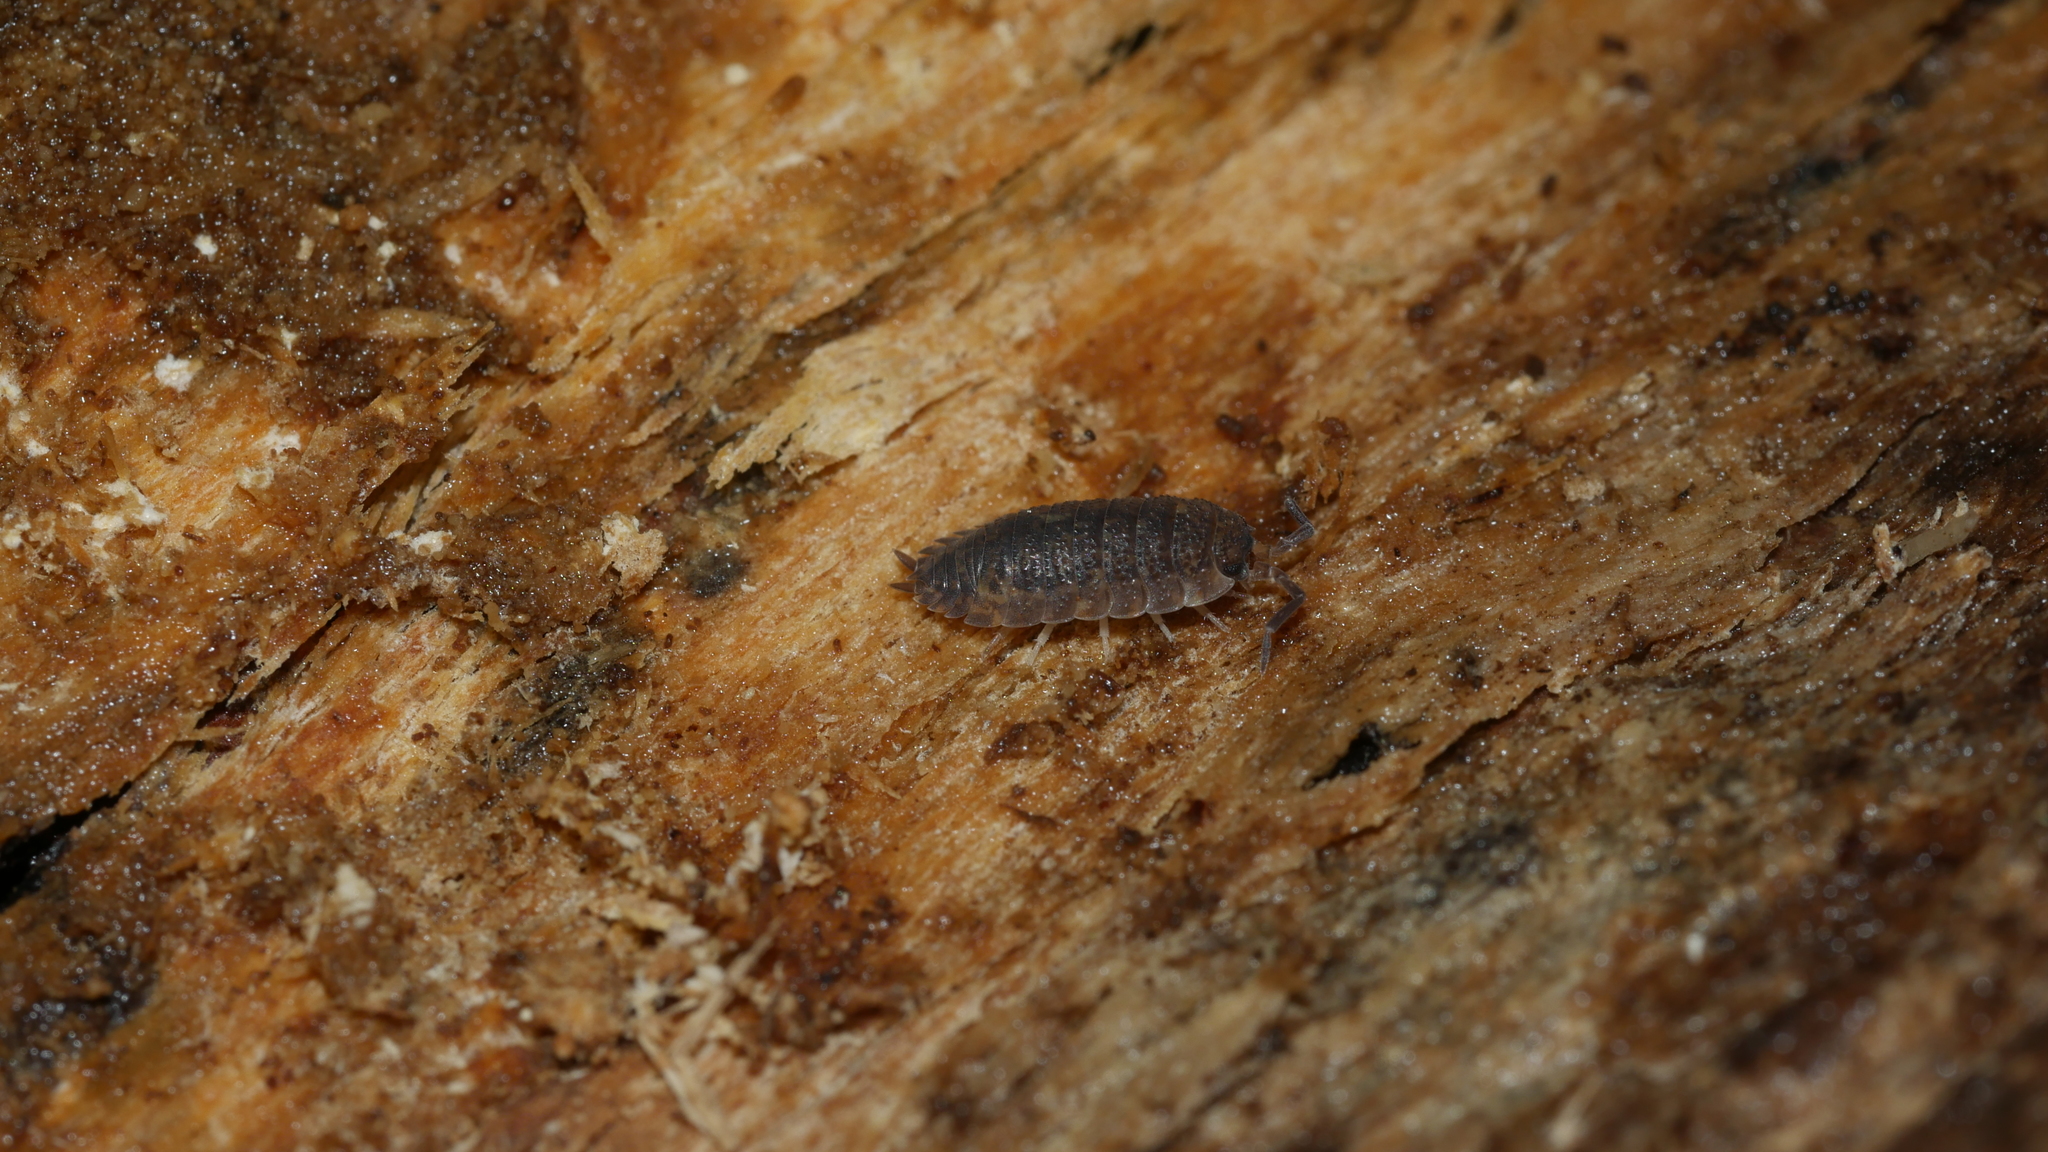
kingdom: Animalia
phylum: Arthropoda
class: Malacostraca
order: Isopoda
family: Porcellionidae
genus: Porcellio
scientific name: Porcellio scaber
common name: Common rough woodlouse
